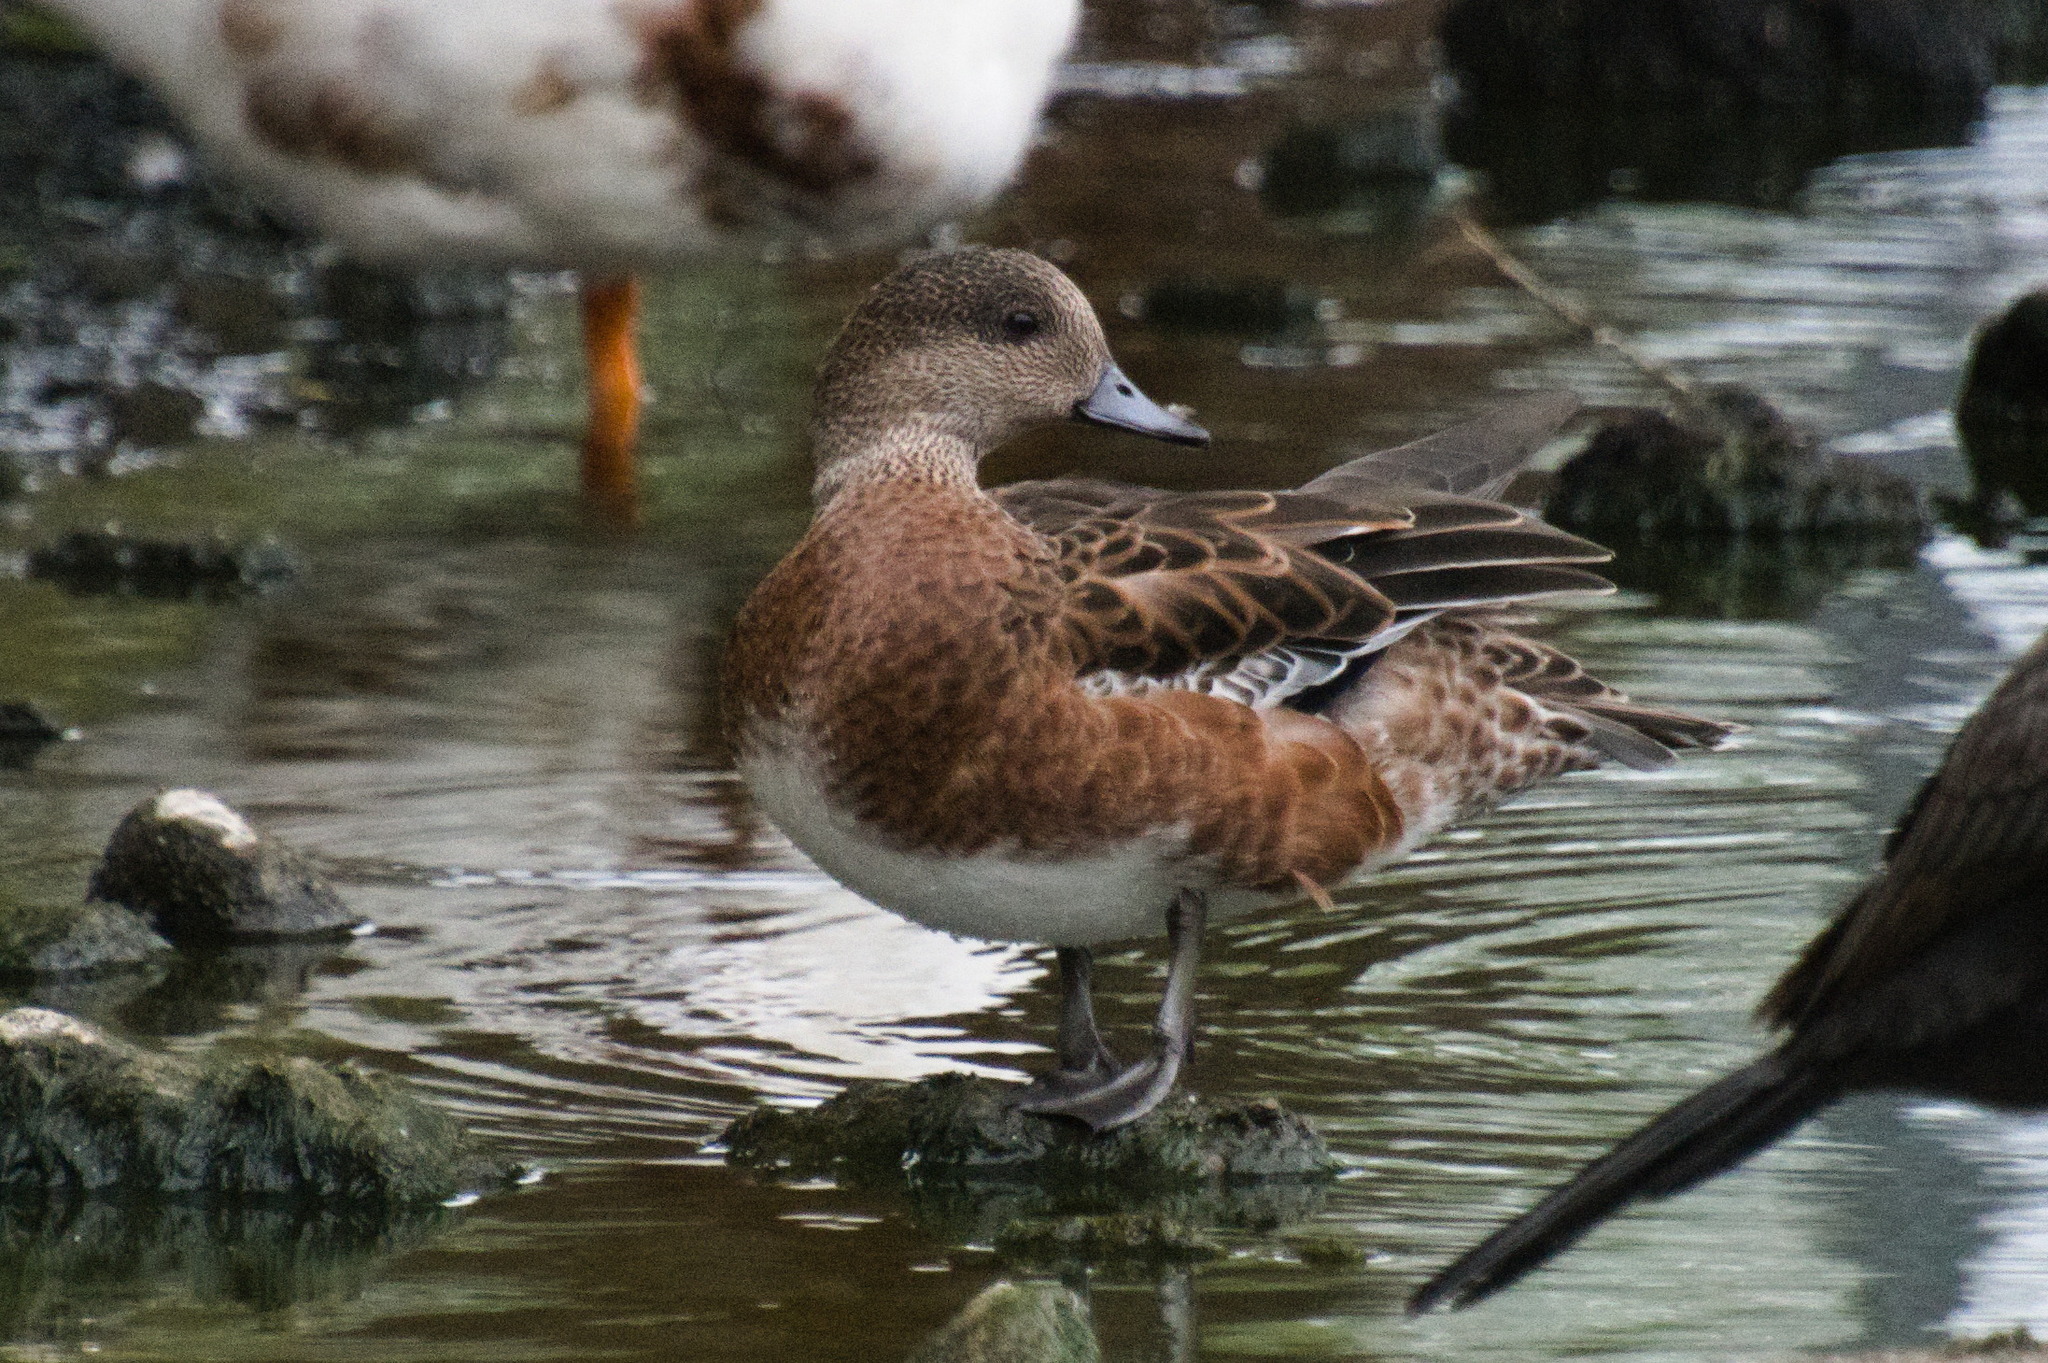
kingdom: Animalia
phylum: Chordata
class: Aves
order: Anseriformes
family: Anatidae
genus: Mareca
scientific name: Mareca americana
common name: American wigeon
